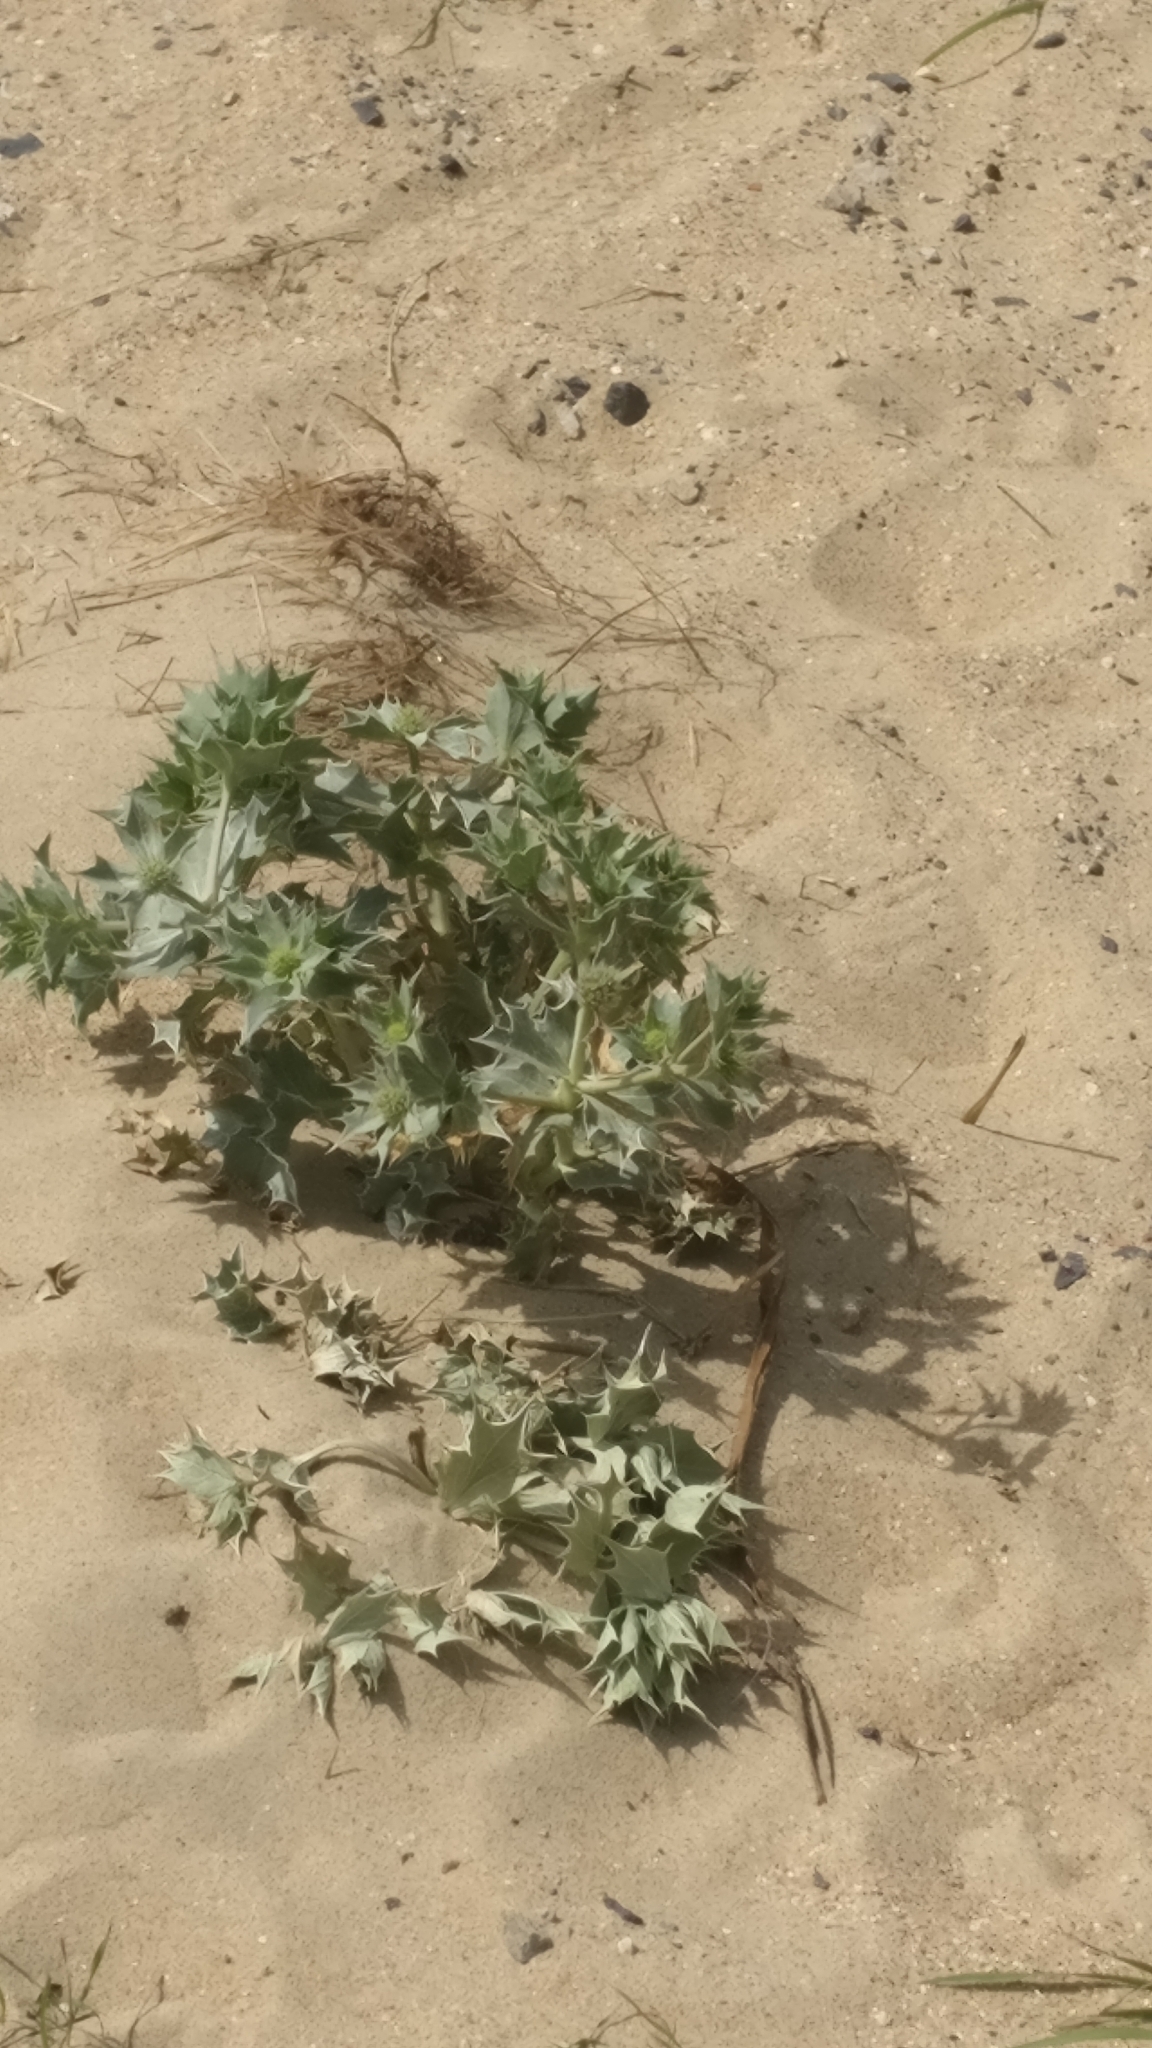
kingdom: Plantae
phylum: Tracheophyta
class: Magnoliopsida
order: Apiales
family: Apiaceae
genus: Eryngium
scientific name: Eryngium maritimum
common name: Sea-holly
